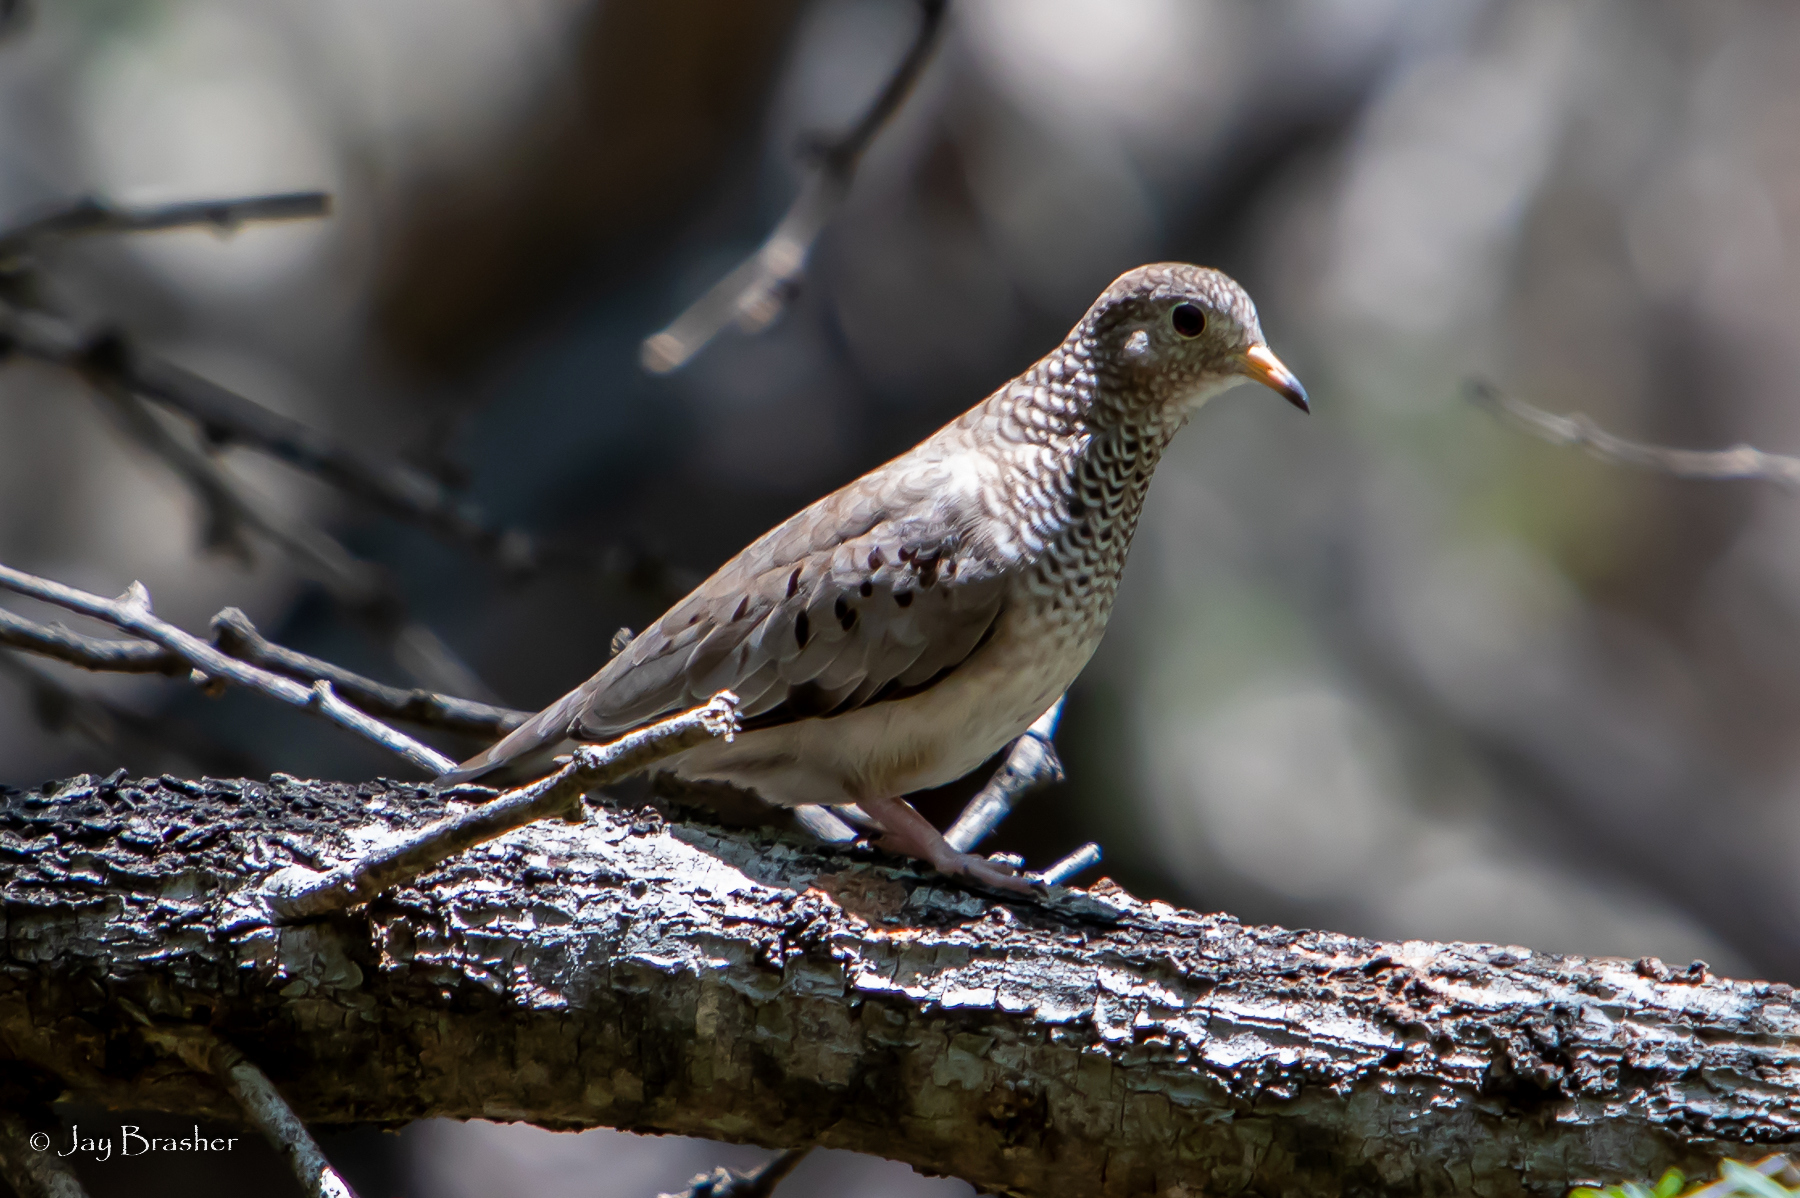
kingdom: Animalia
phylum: Chordata
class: Aves
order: Columbiformes
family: Columbidae
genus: Columbina
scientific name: Columbina passerina
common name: Common ground-dove
